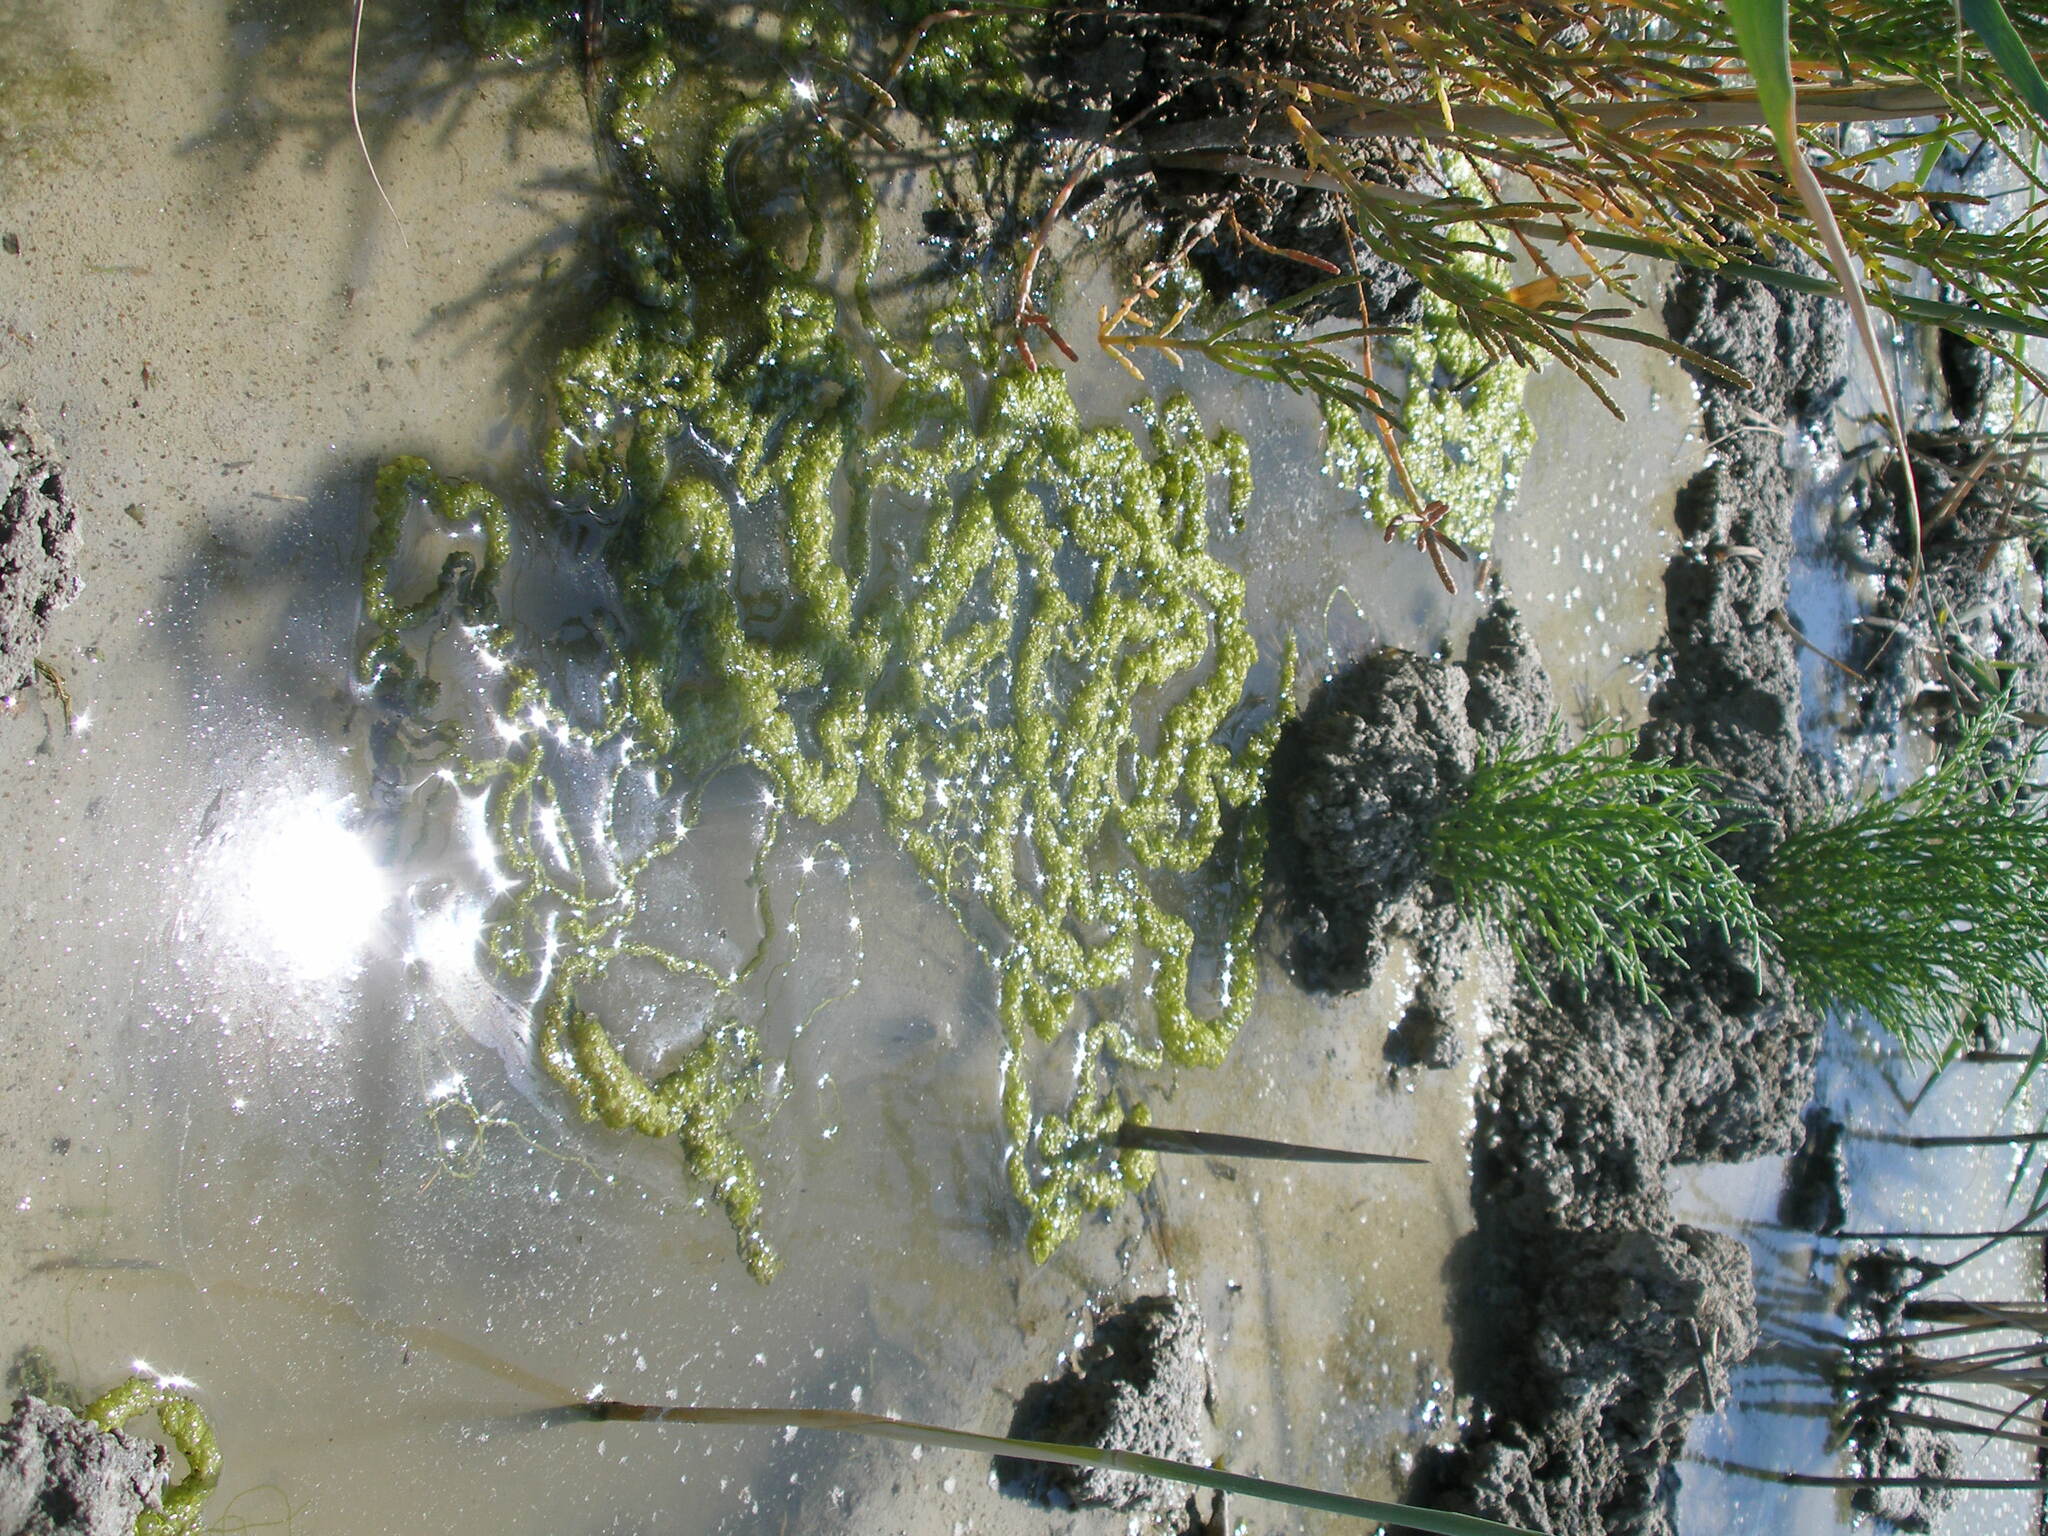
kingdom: Plantae
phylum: Chlorophyta
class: Ulvophyceae
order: Ulvales
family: Ulvaceae
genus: Ulva
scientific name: Ulva intestinalis
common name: Gut weed
